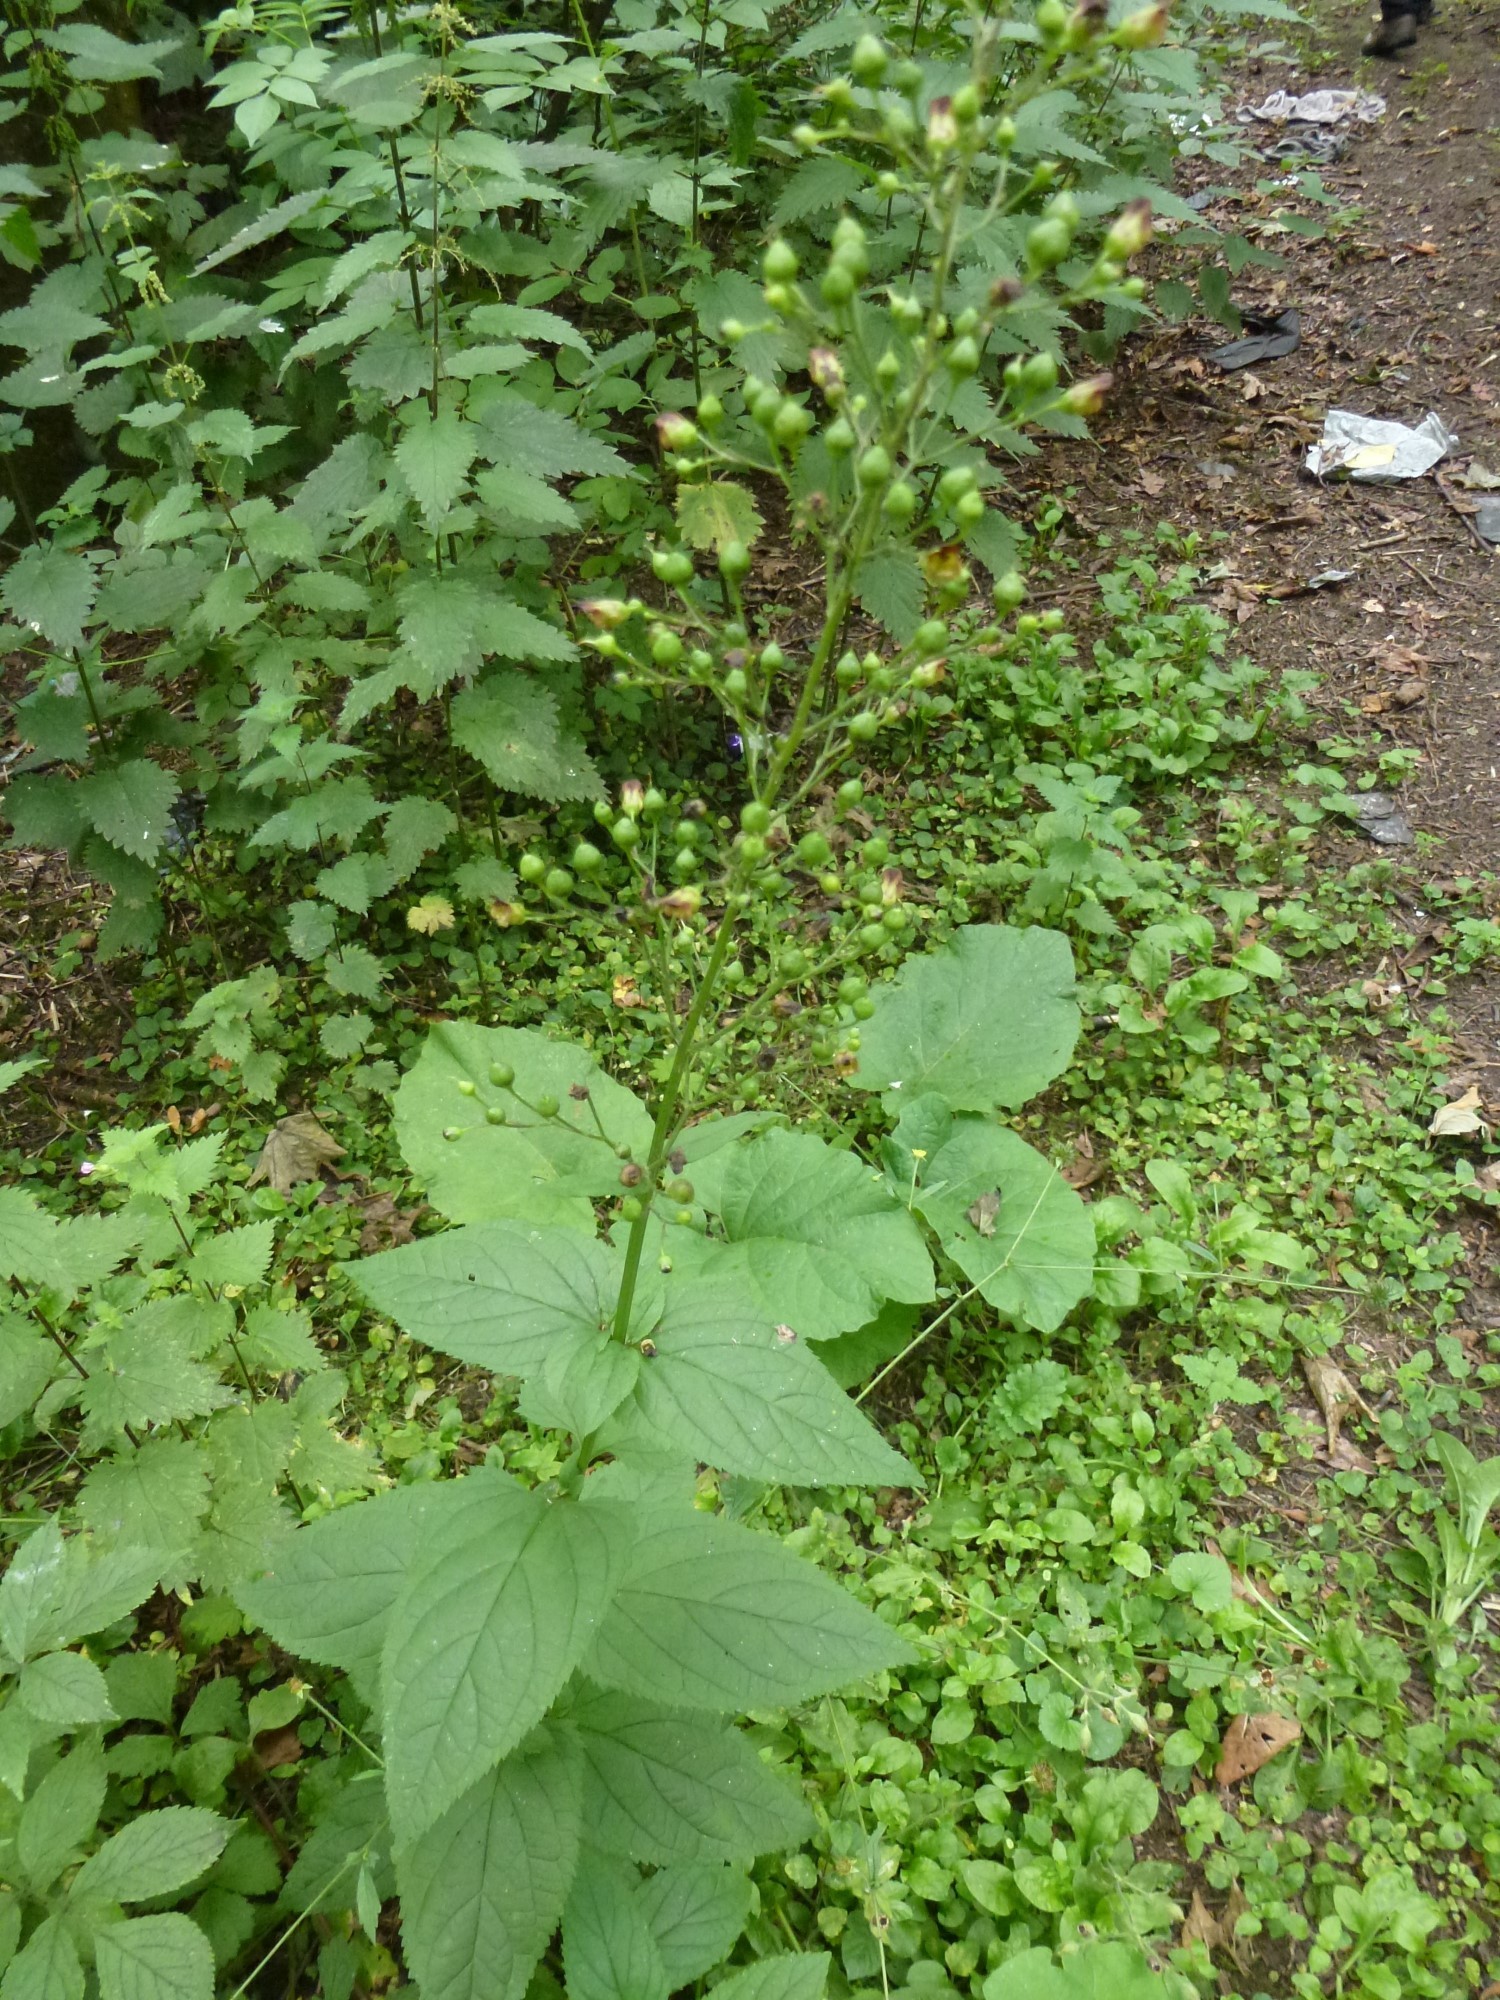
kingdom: Plantae
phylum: Tracheophyta
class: Magnoliopsida
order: Lamiales
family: Scrophulariaceae
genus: Scrophularia
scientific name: Scrophularia nodosa
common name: Common figwort
